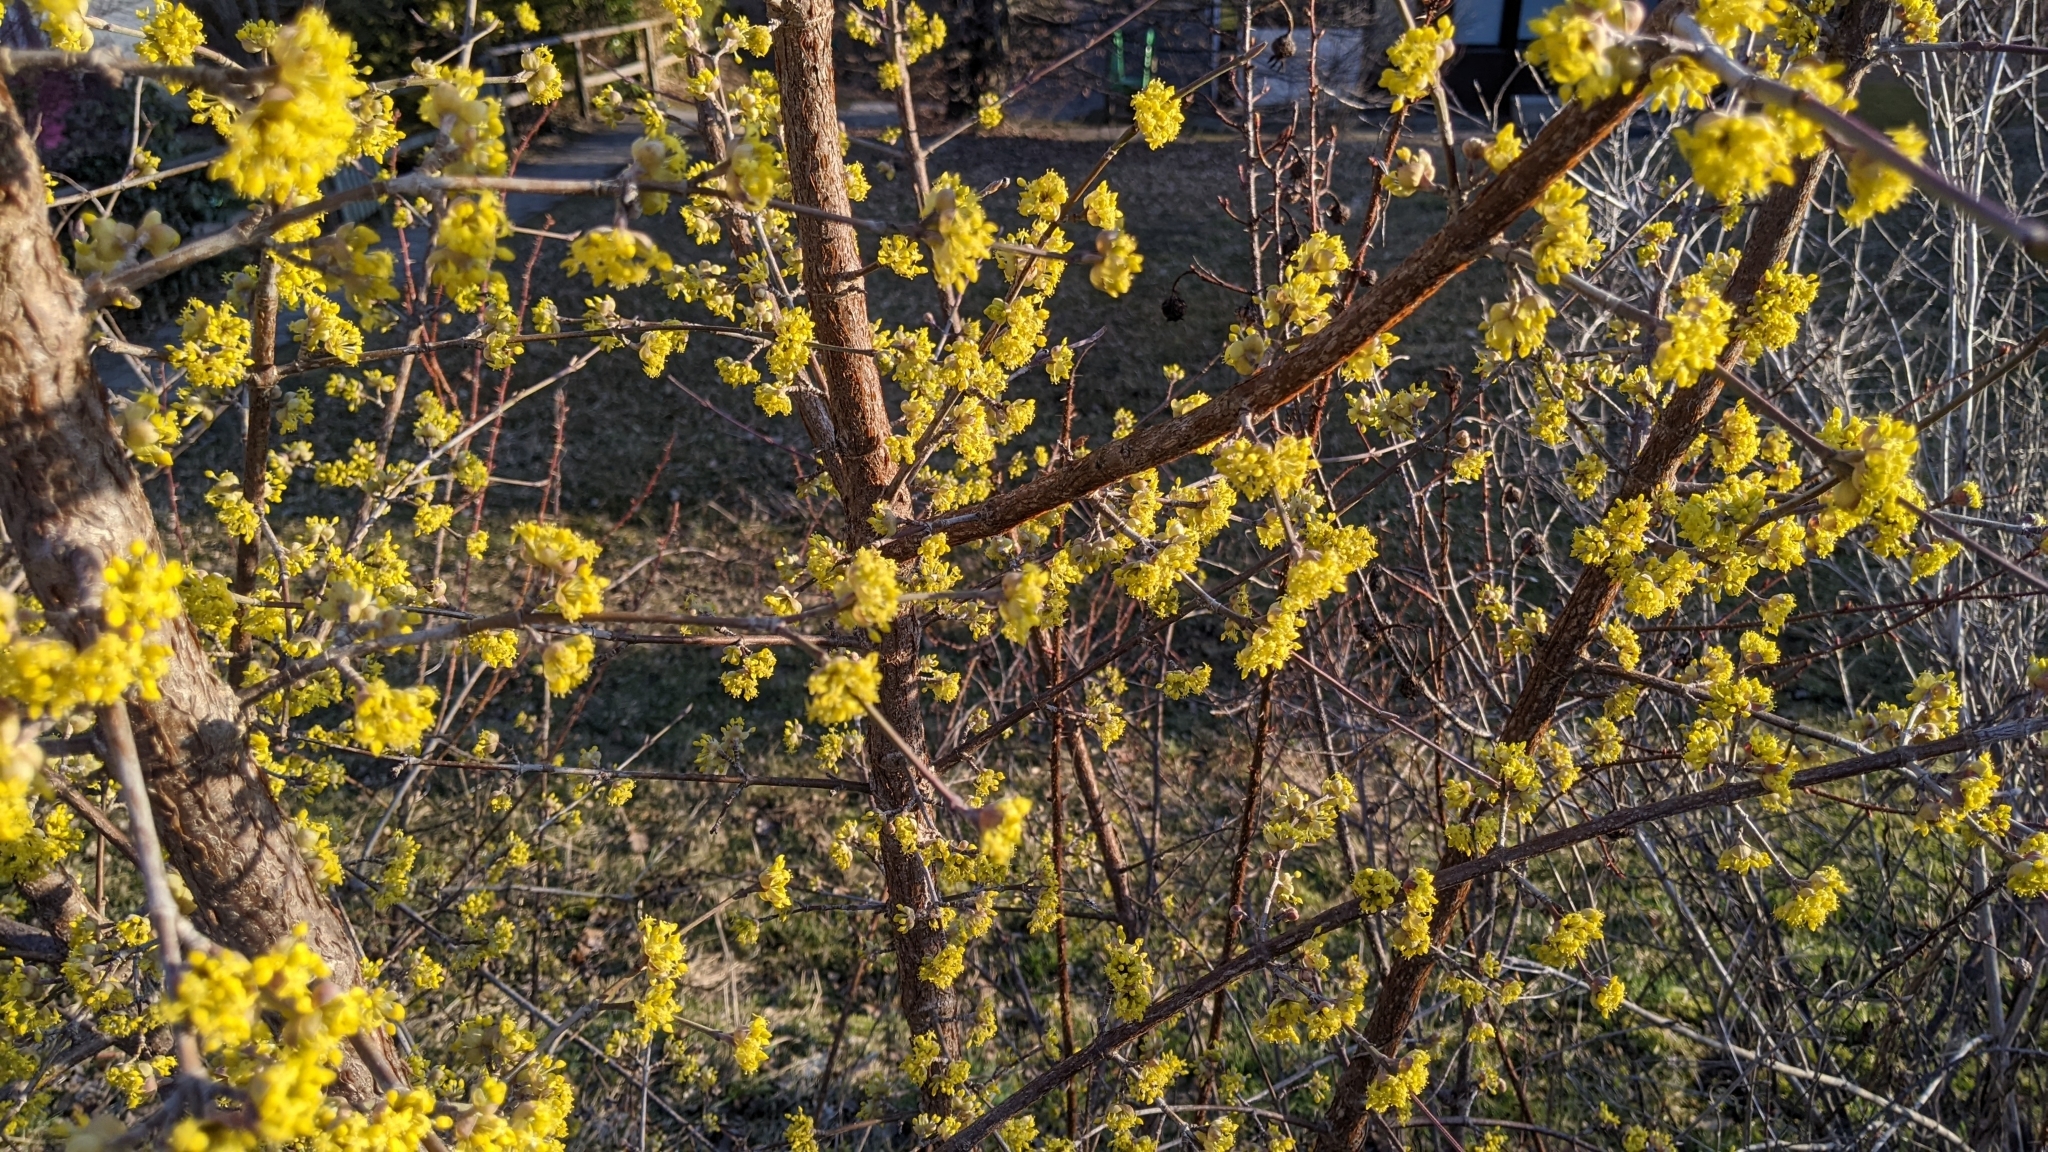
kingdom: Plantae
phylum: Tracheophyta
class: Magnoliopsida
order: Cornales
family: Cornaceae
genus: Cornus
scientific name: Cornus mas
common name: Cornelian-cherry
